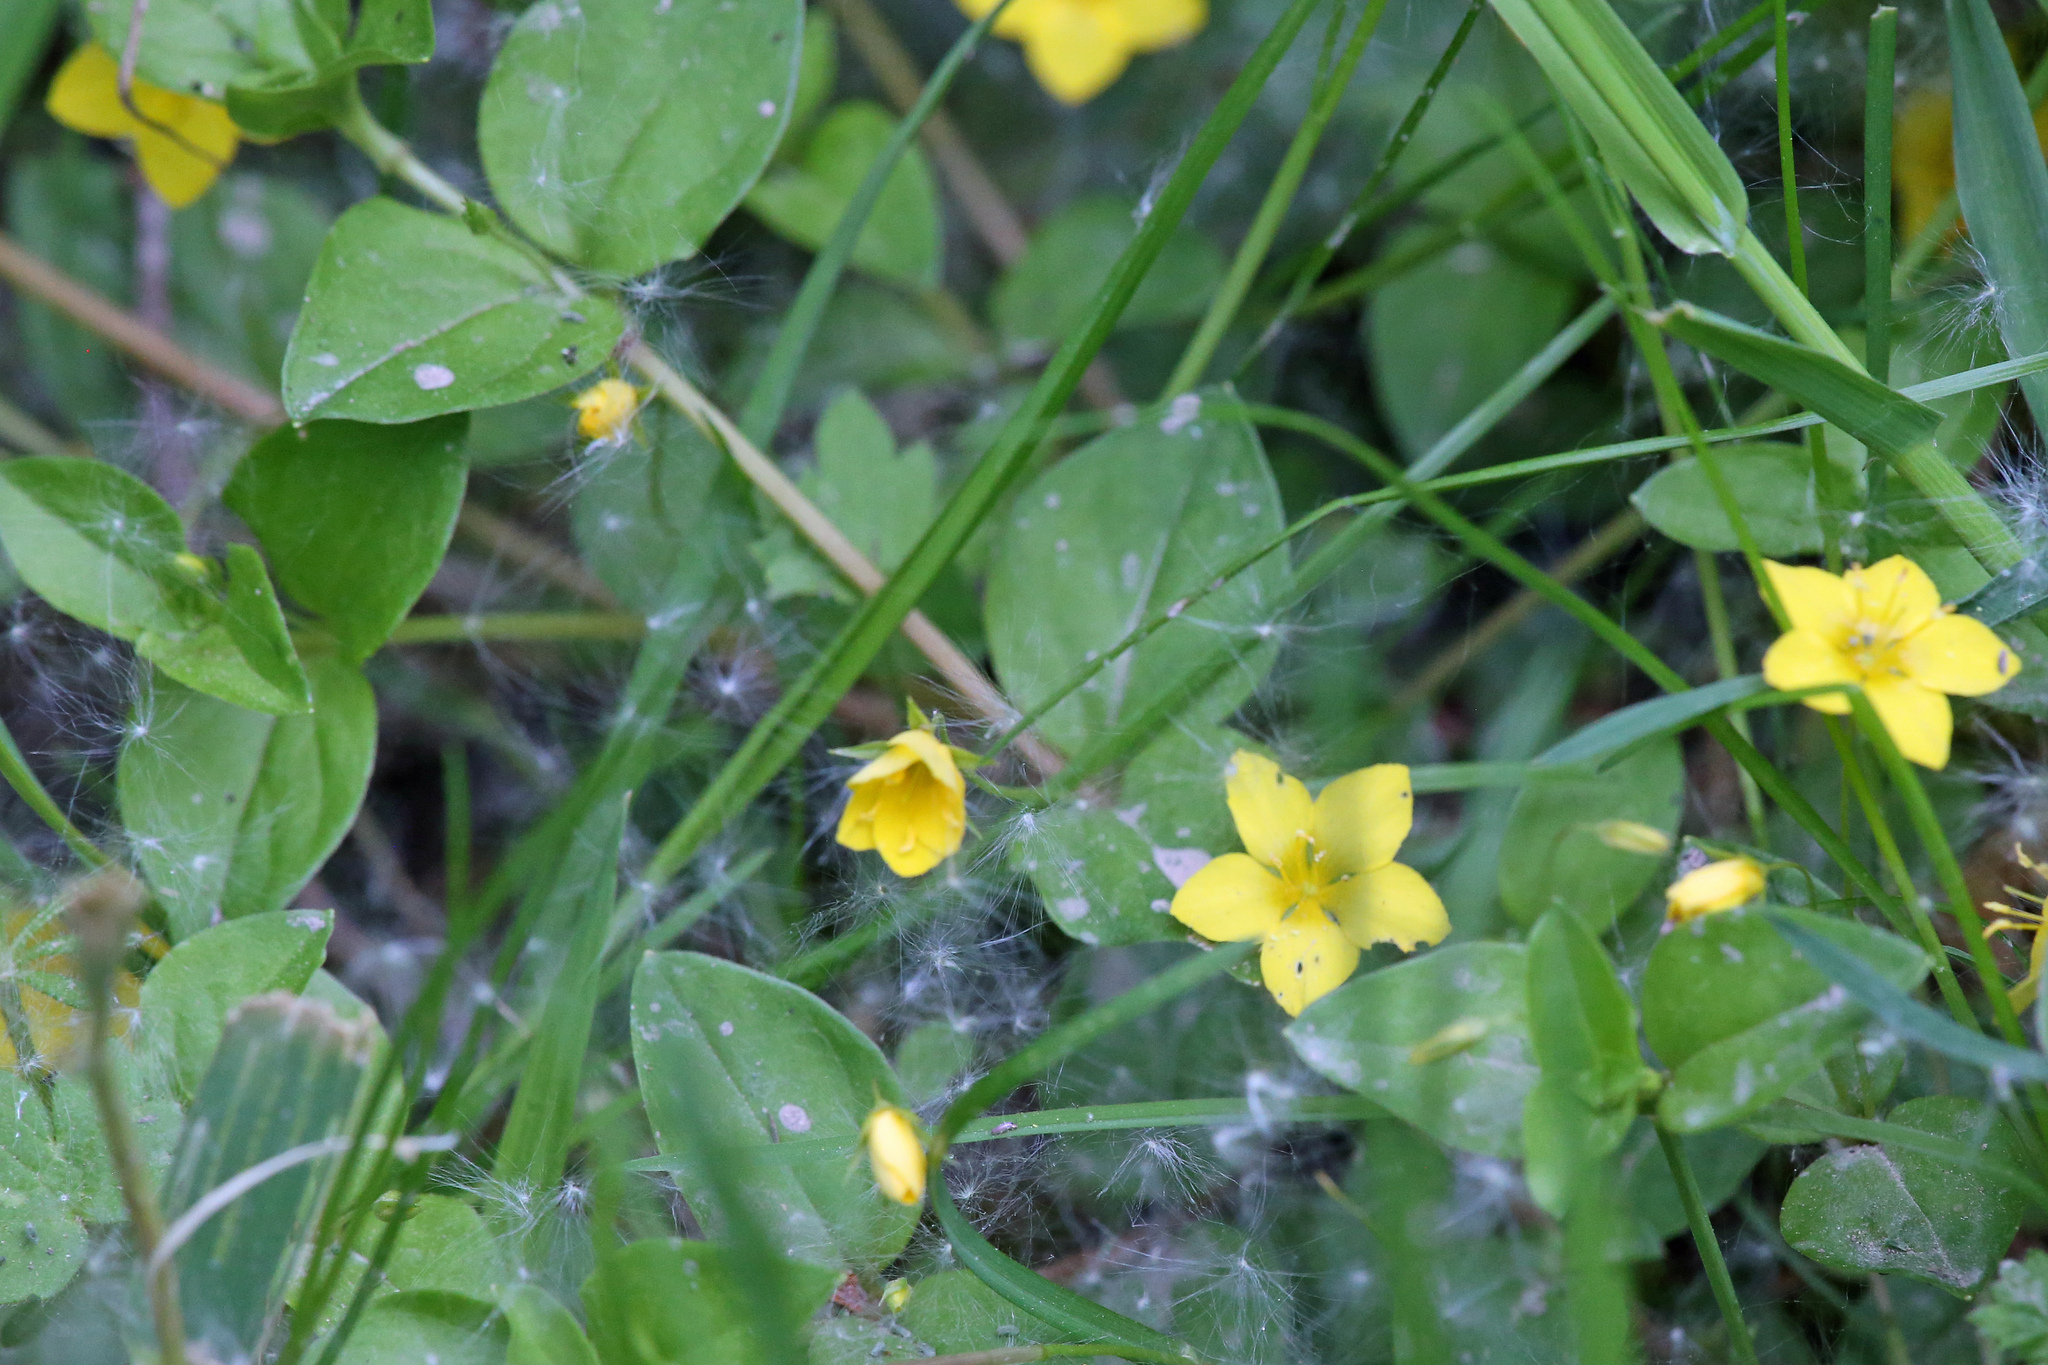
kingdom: Plantae
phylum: Tracheophyta
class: Magnoliopsida
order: Ericales
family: Primulaceae
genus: Lysimachia
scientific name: Lysimachia nemorum
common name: Yellow pimpernel
